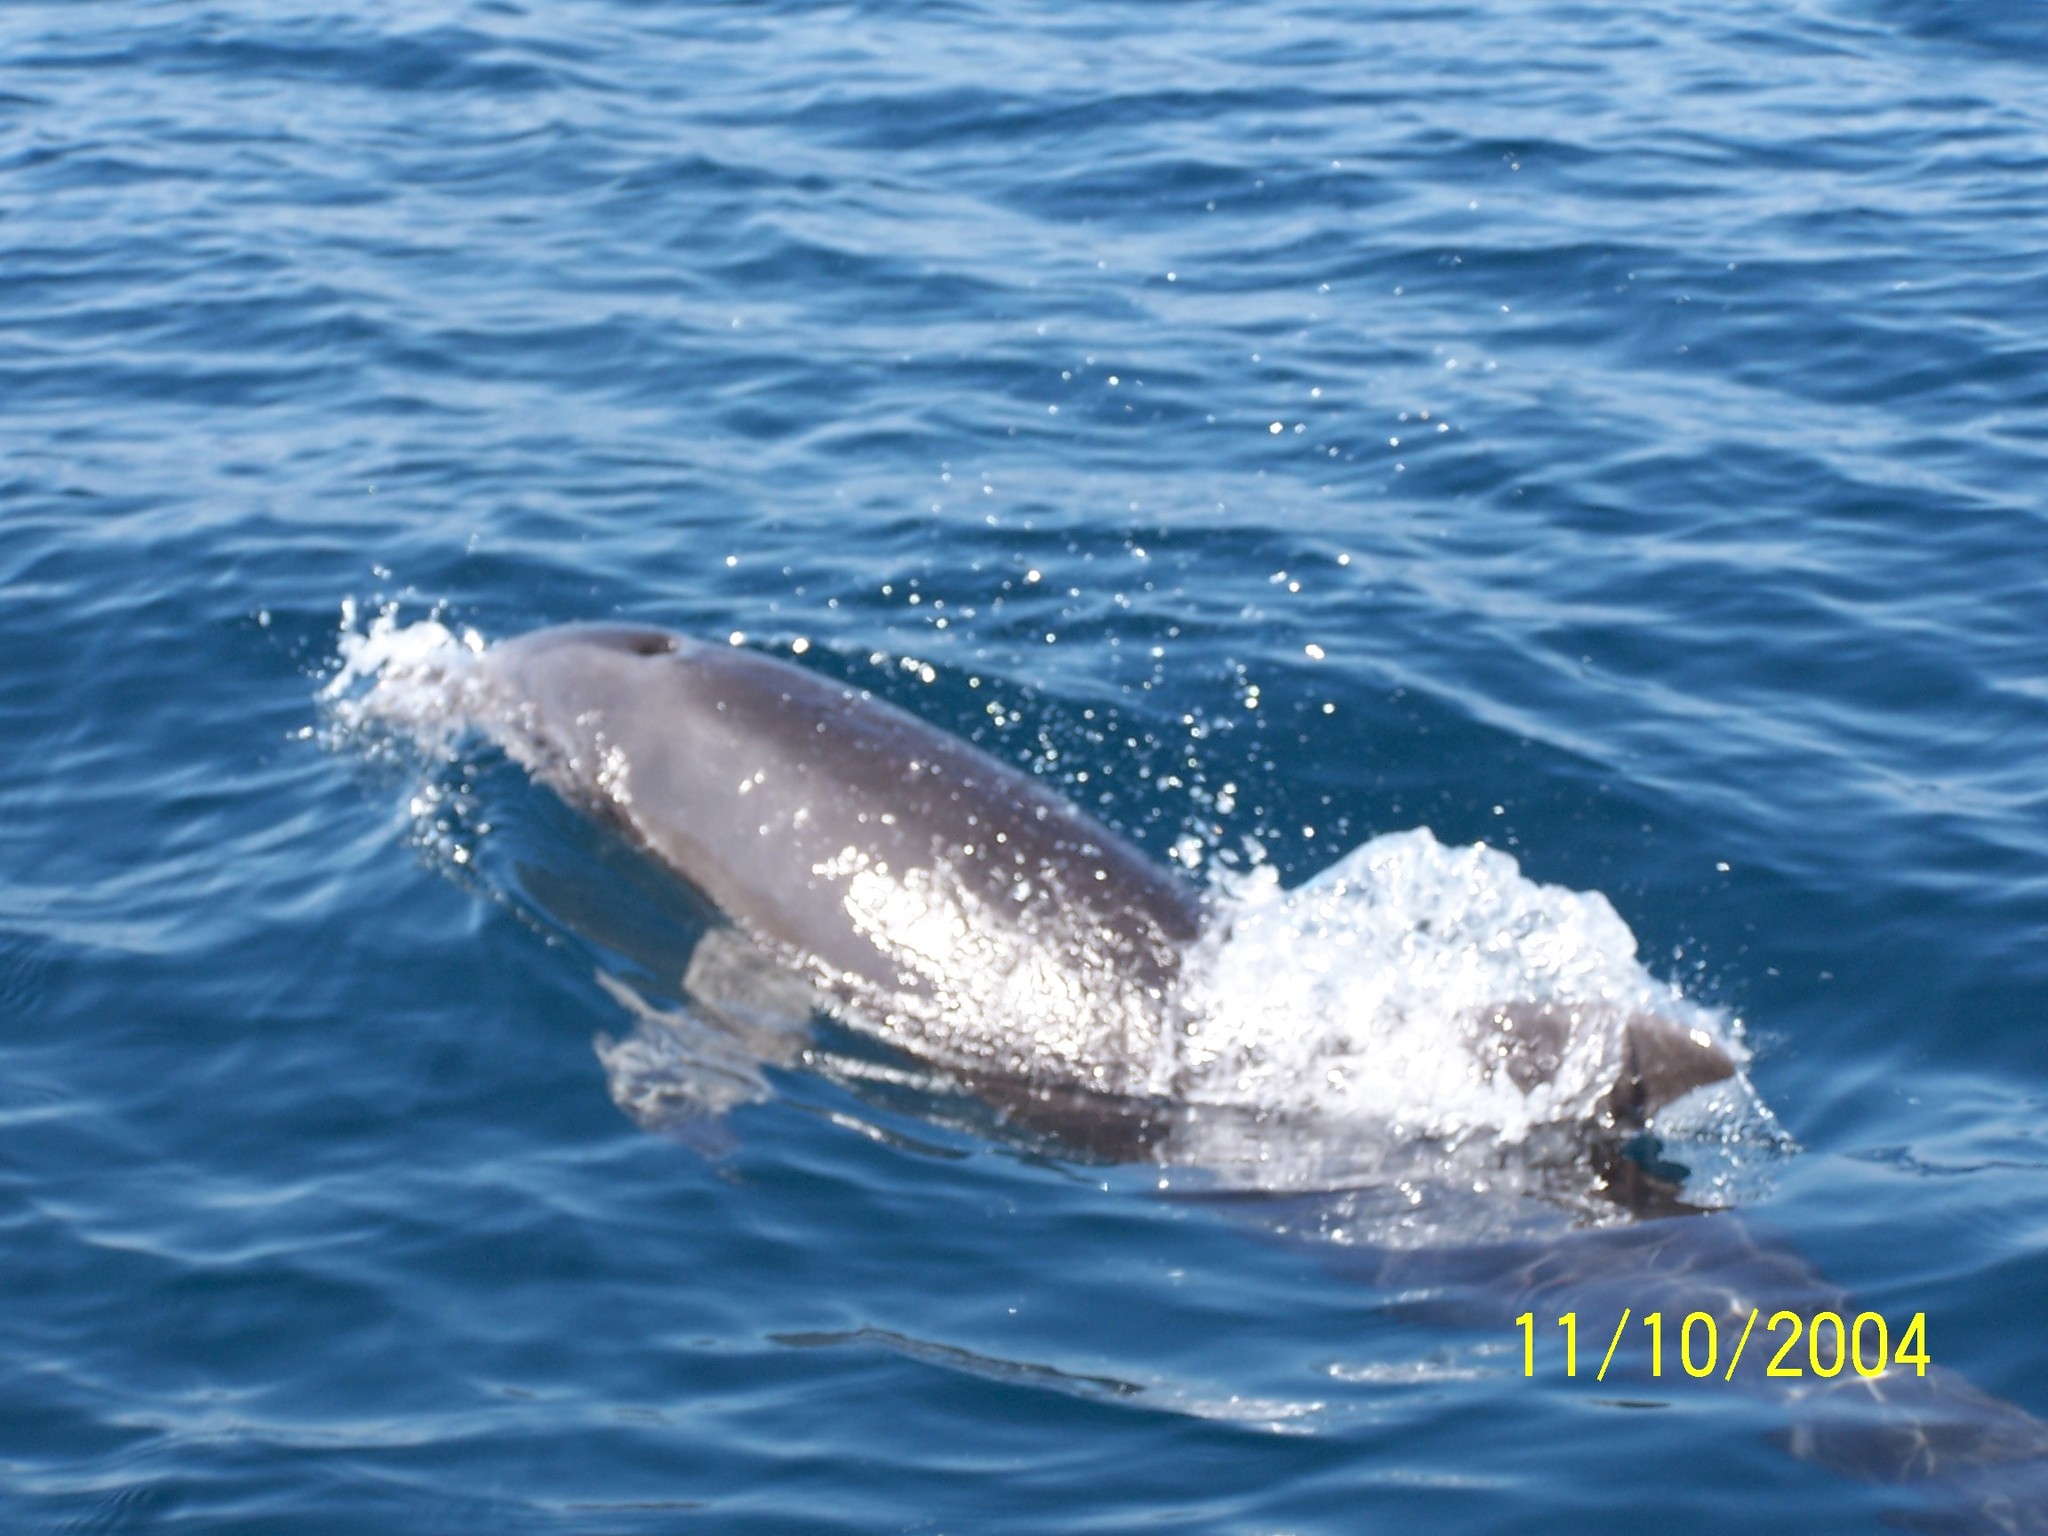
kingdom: Animalia
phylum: Chordata
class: Mammalia
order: Cetacea
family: Delphinidae
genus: Stenella
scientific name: Stenella longirostris
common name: Spinner dolphin
